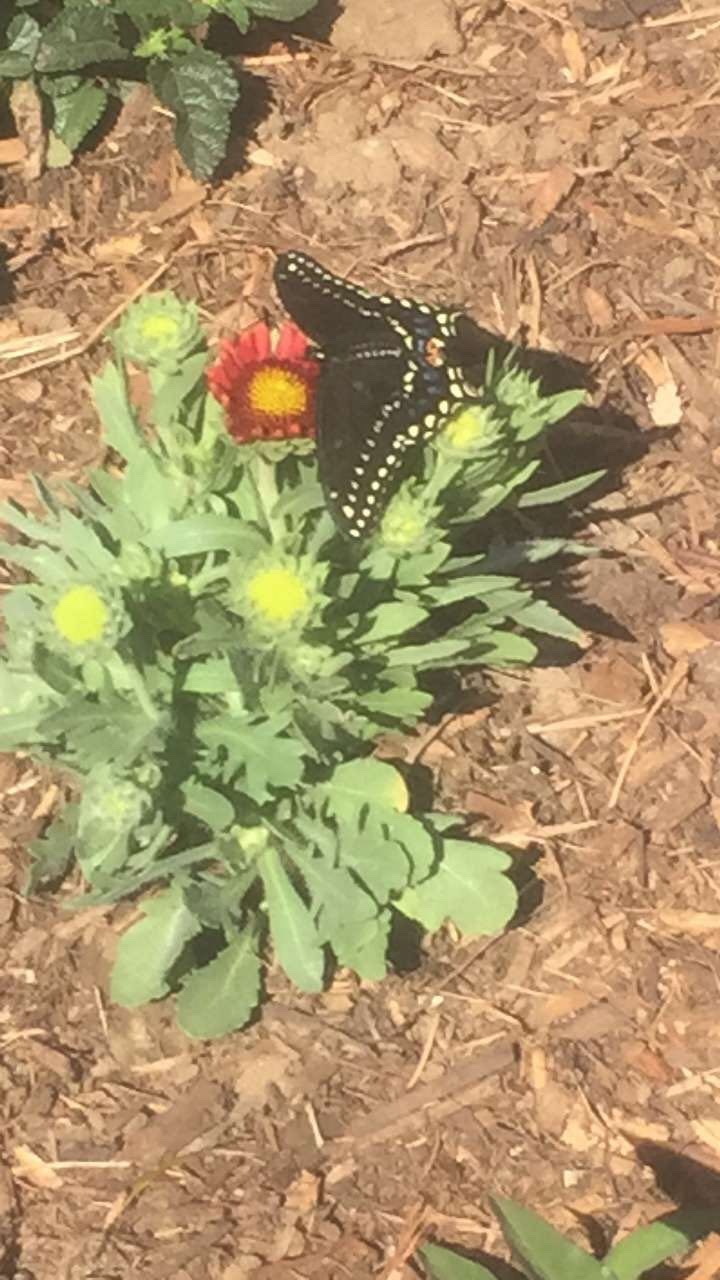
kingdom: Animalia
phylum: Arthropoda
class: Insecta
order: Lepidoptera
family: Papilionidae
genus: Papilio
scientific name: Papilio polyxenes
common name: Black swallowtail
